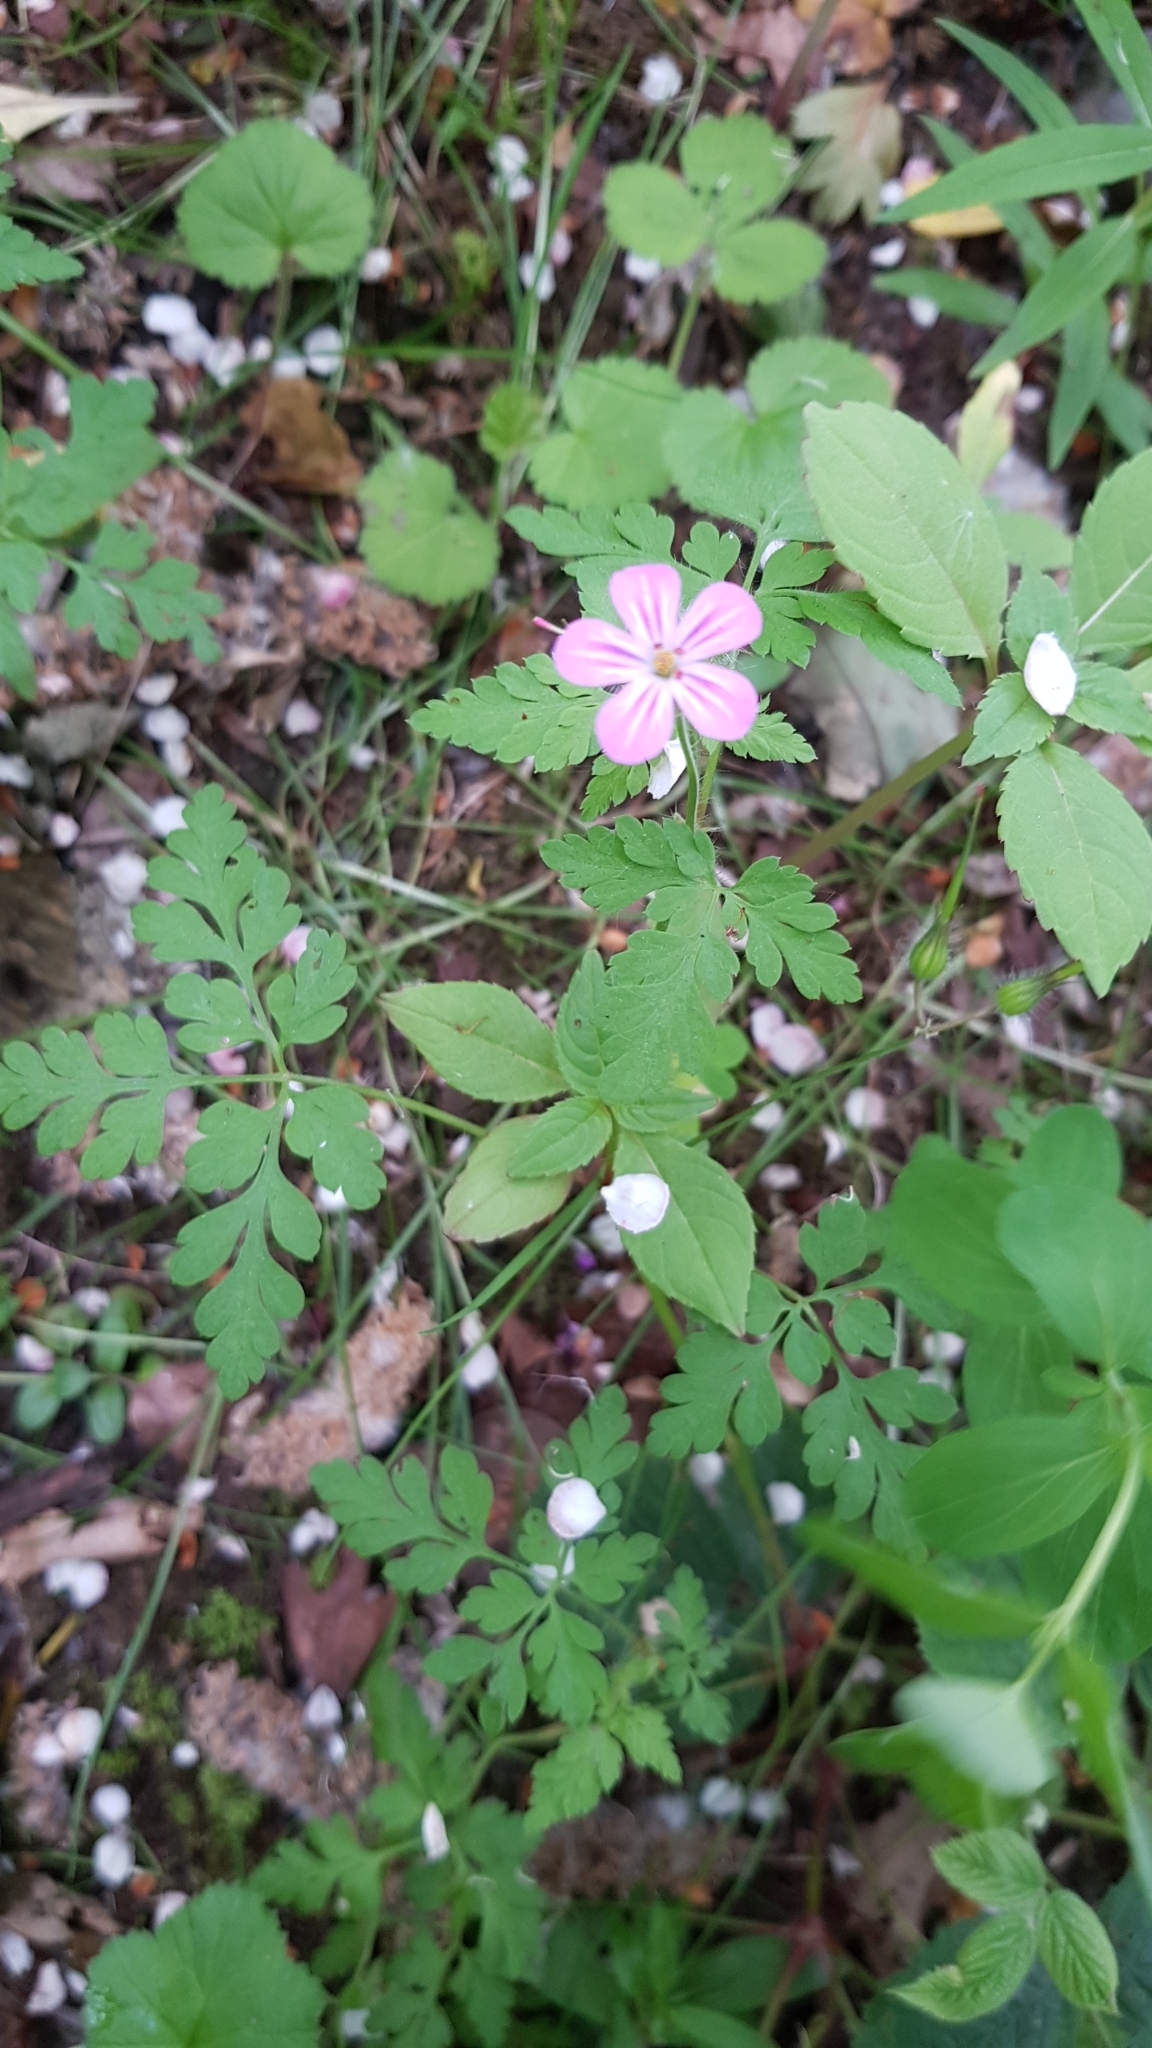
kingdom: Plantae
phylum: Tracheophyta
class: Magnoliopsida
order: Geraniales
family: Geraniaceae
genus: Geranium
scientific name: Geranium robertianum
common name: Herb-robert
